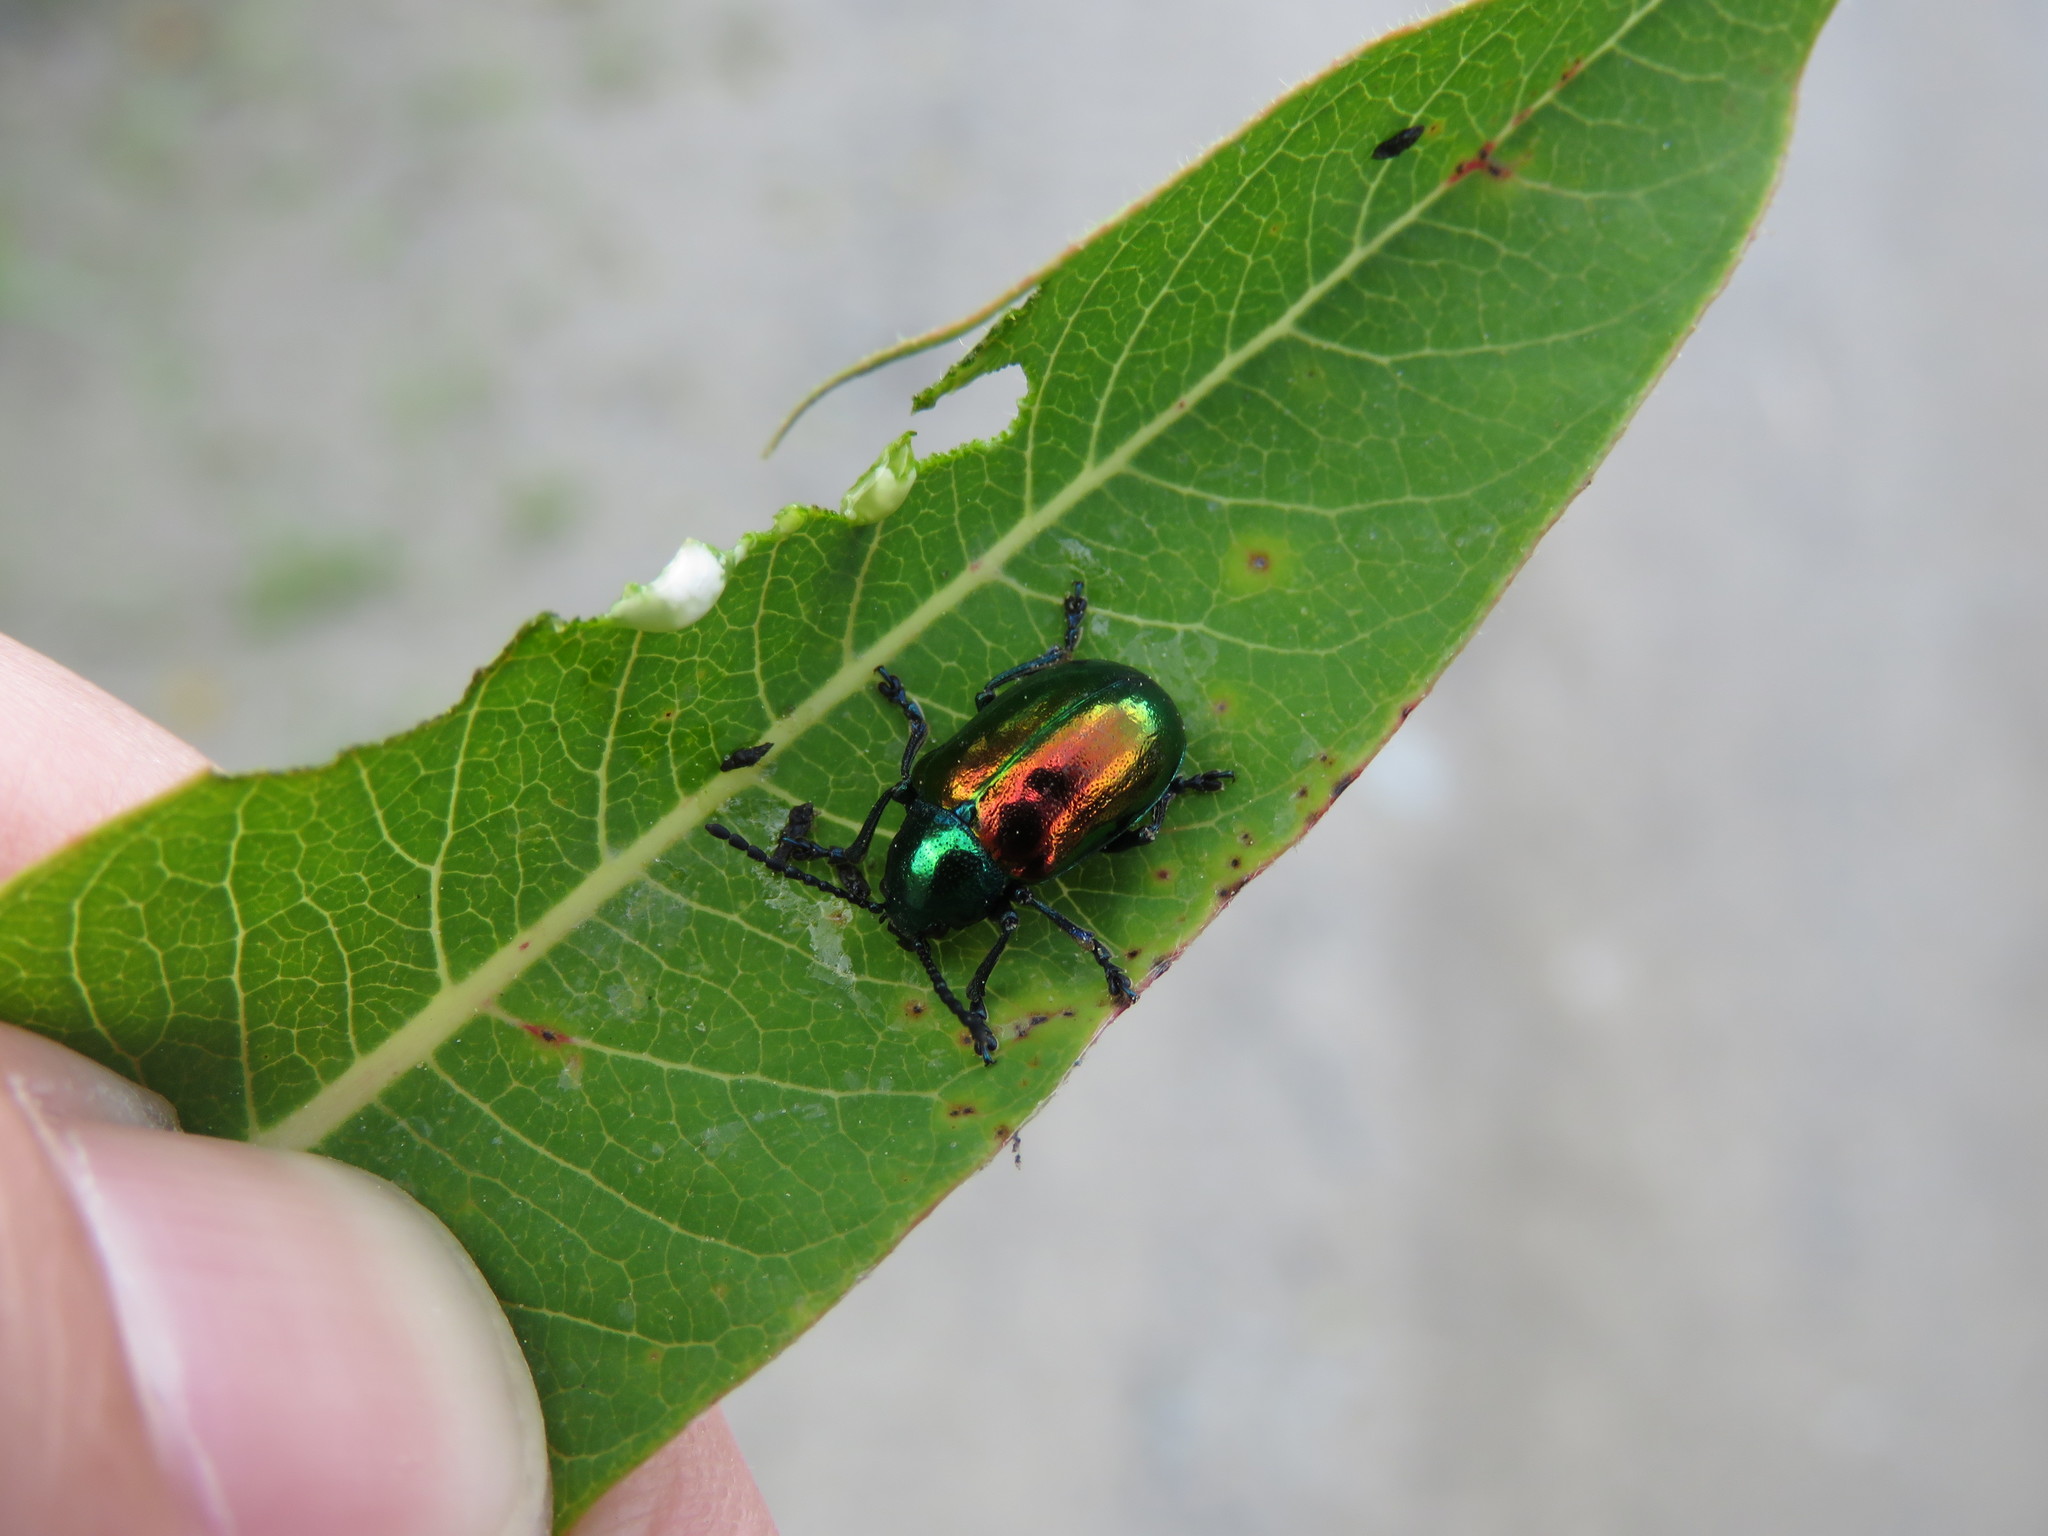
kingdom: Animalia
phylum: Arthropoda
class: Insecta
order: Coleoptera
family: Chrysomelidae
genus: Chrysochus
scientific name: Chrysochus auratus
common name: Dogbane leaf beetle
